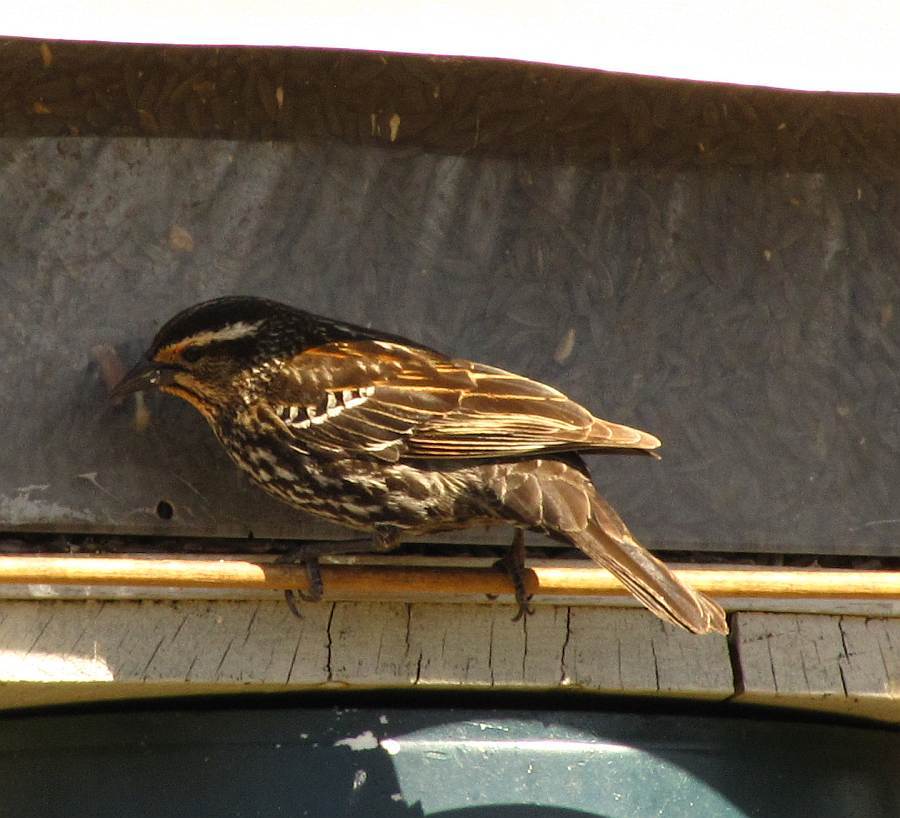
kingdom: Animalia
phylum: Chordata
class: Aves
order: Passeriformes
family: Icteridae
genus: Agelaius
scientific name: Agelaius phoeniceus
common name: Red-winged blackbird
